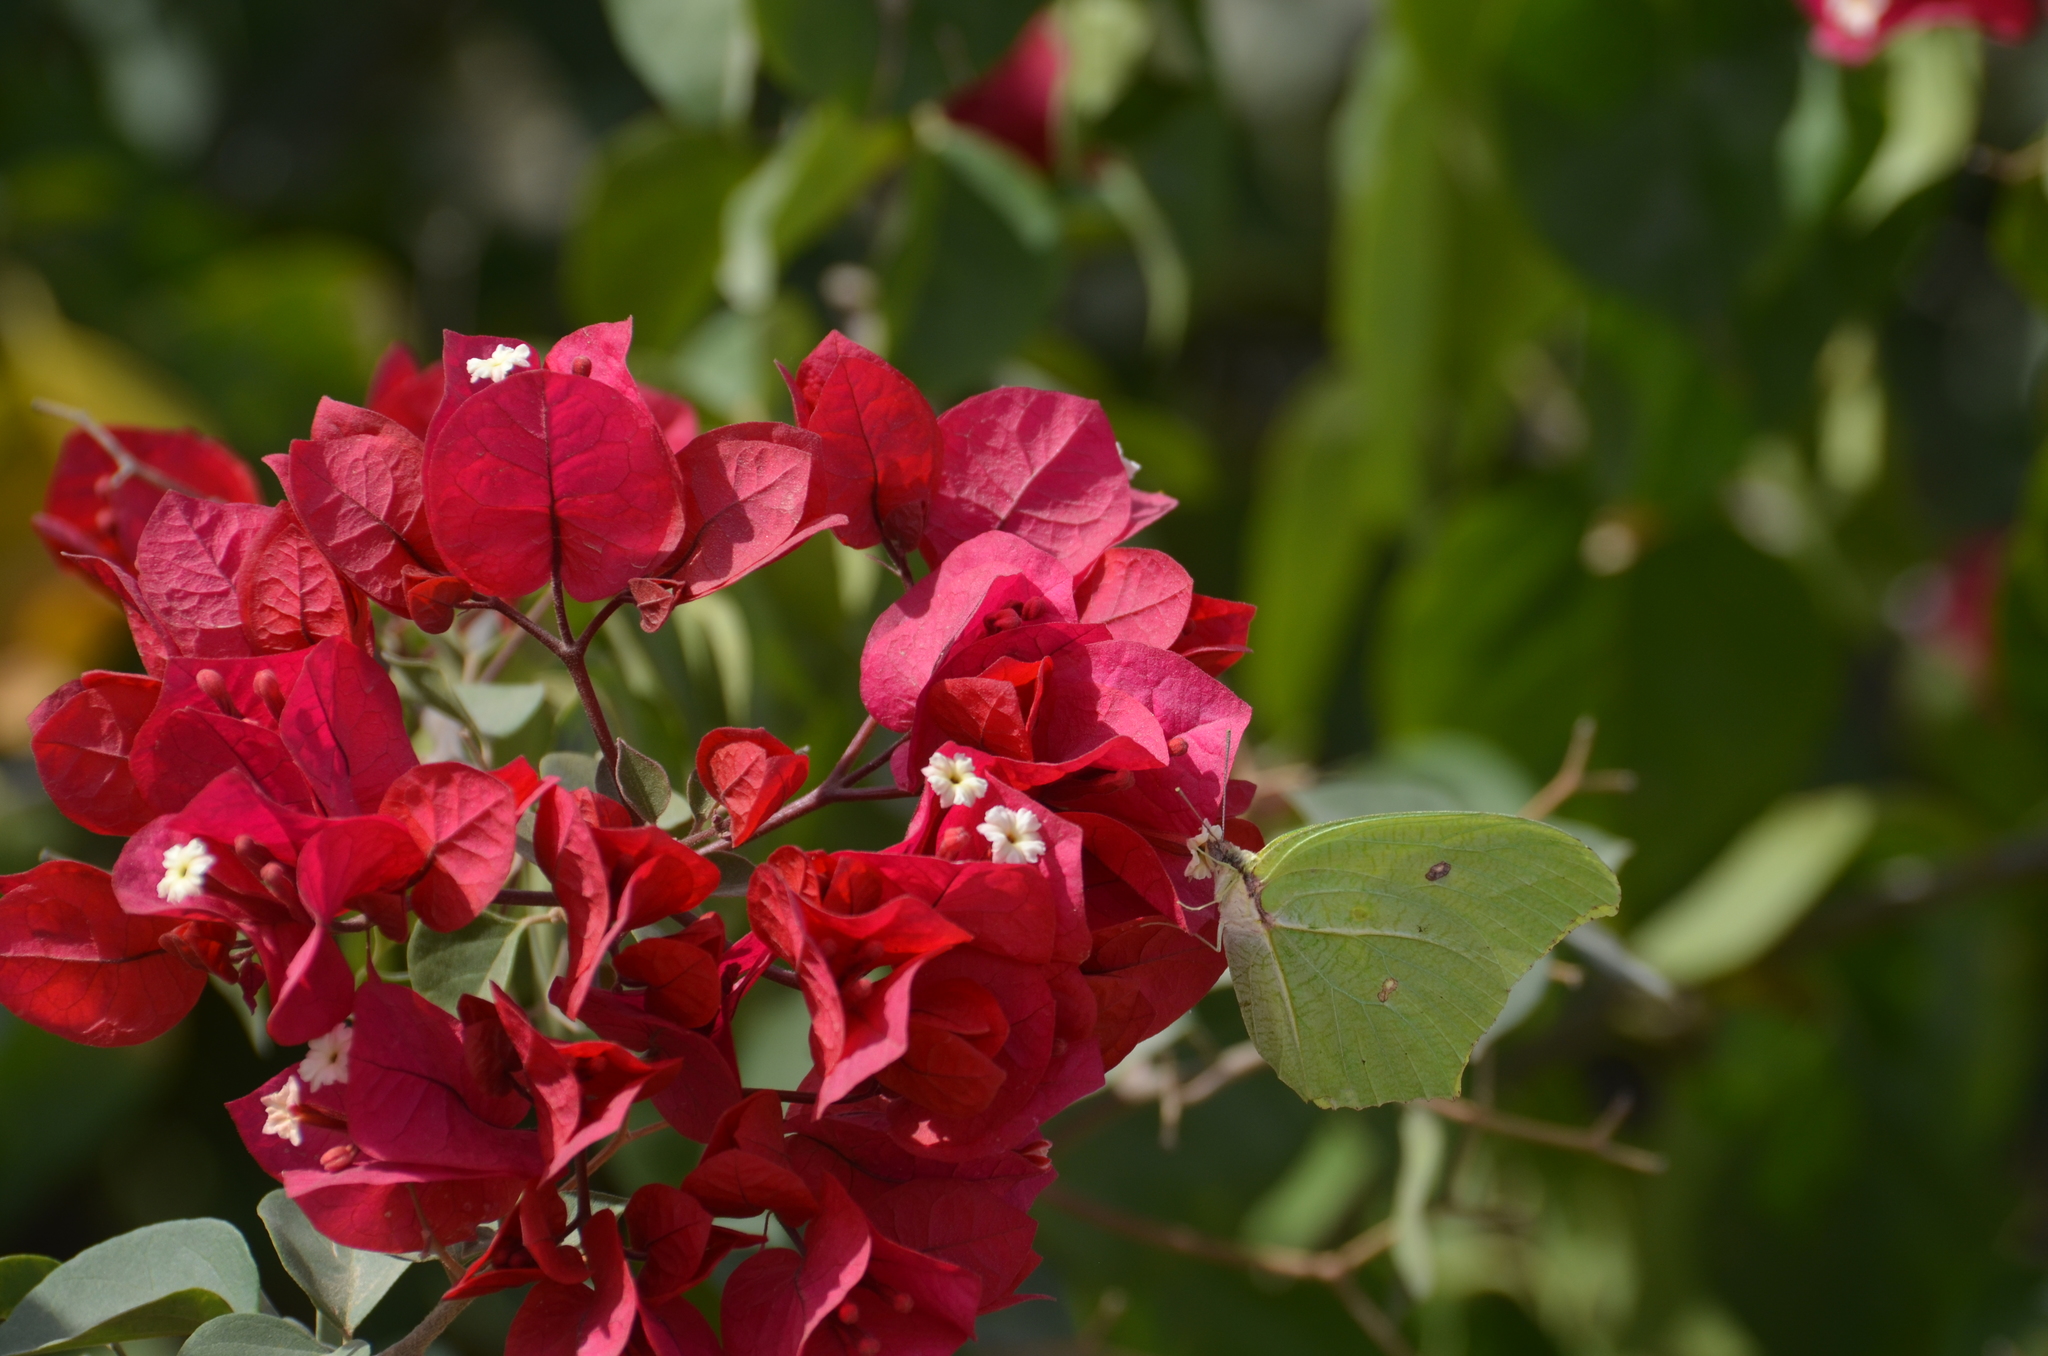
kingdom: Animalia
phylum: Arthropoda
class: Insecta
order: Lepidoptera
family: Pieridae
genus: Anteos
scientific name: Anteos maerula
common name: Angled sulphur
